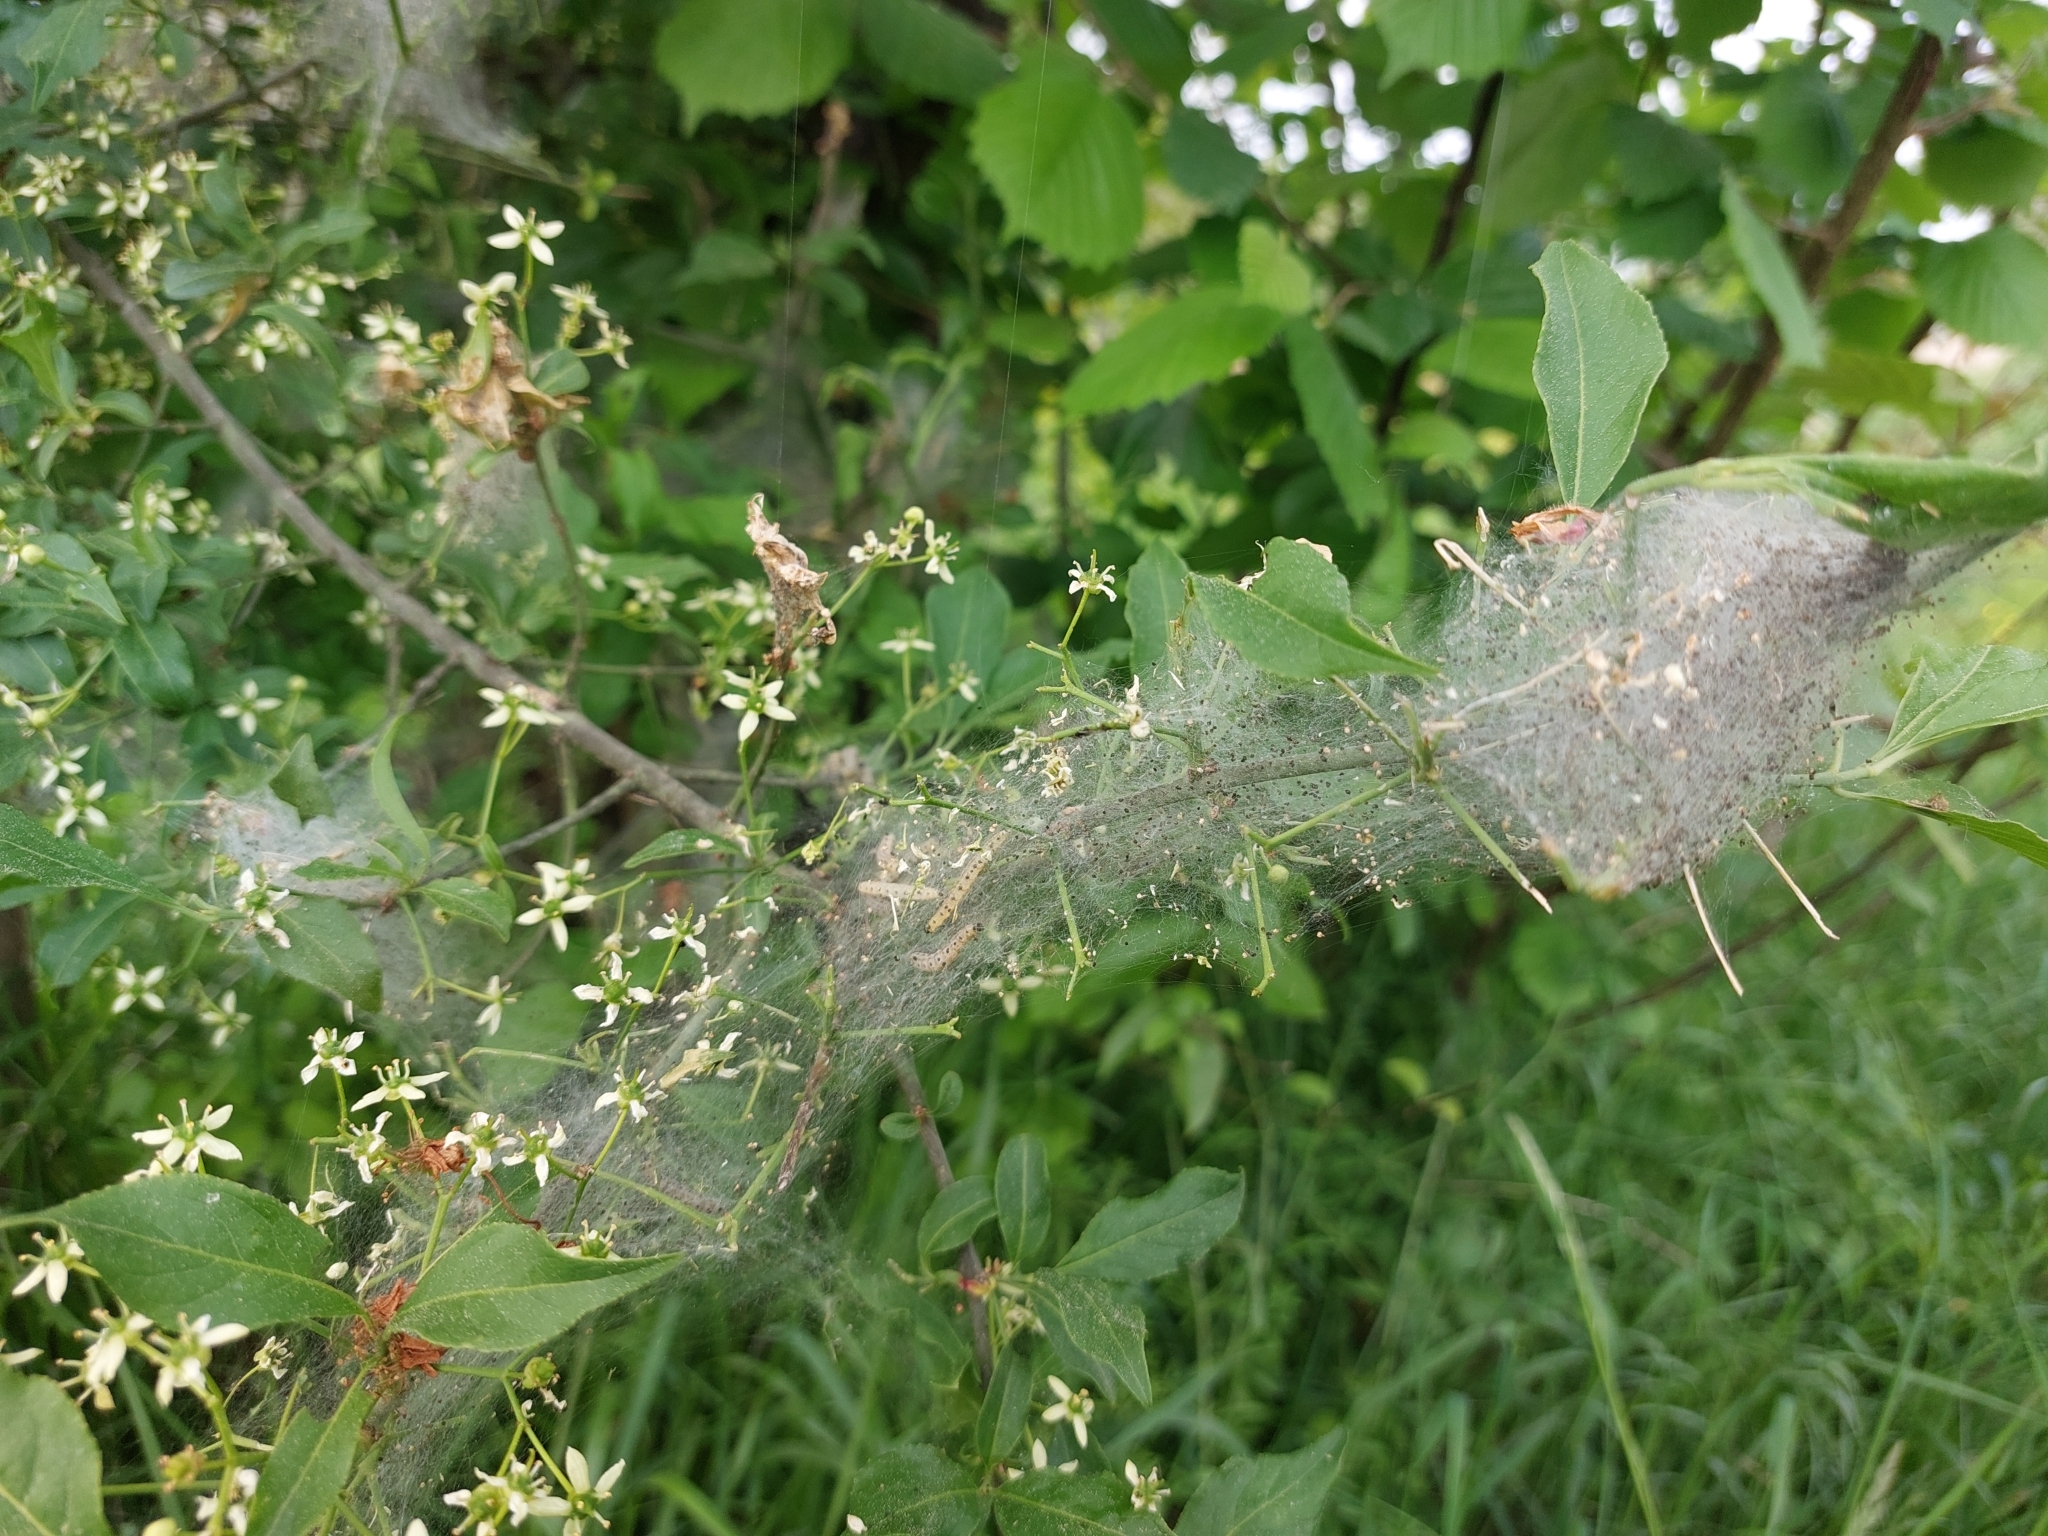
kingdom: Animalia
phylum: Arthropoda
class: Insecta
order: Lepidoptera
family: Yponomeutidae
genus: Yponomeuta
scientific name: Yponomeuta cagnagellus
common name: Spindle ermine
